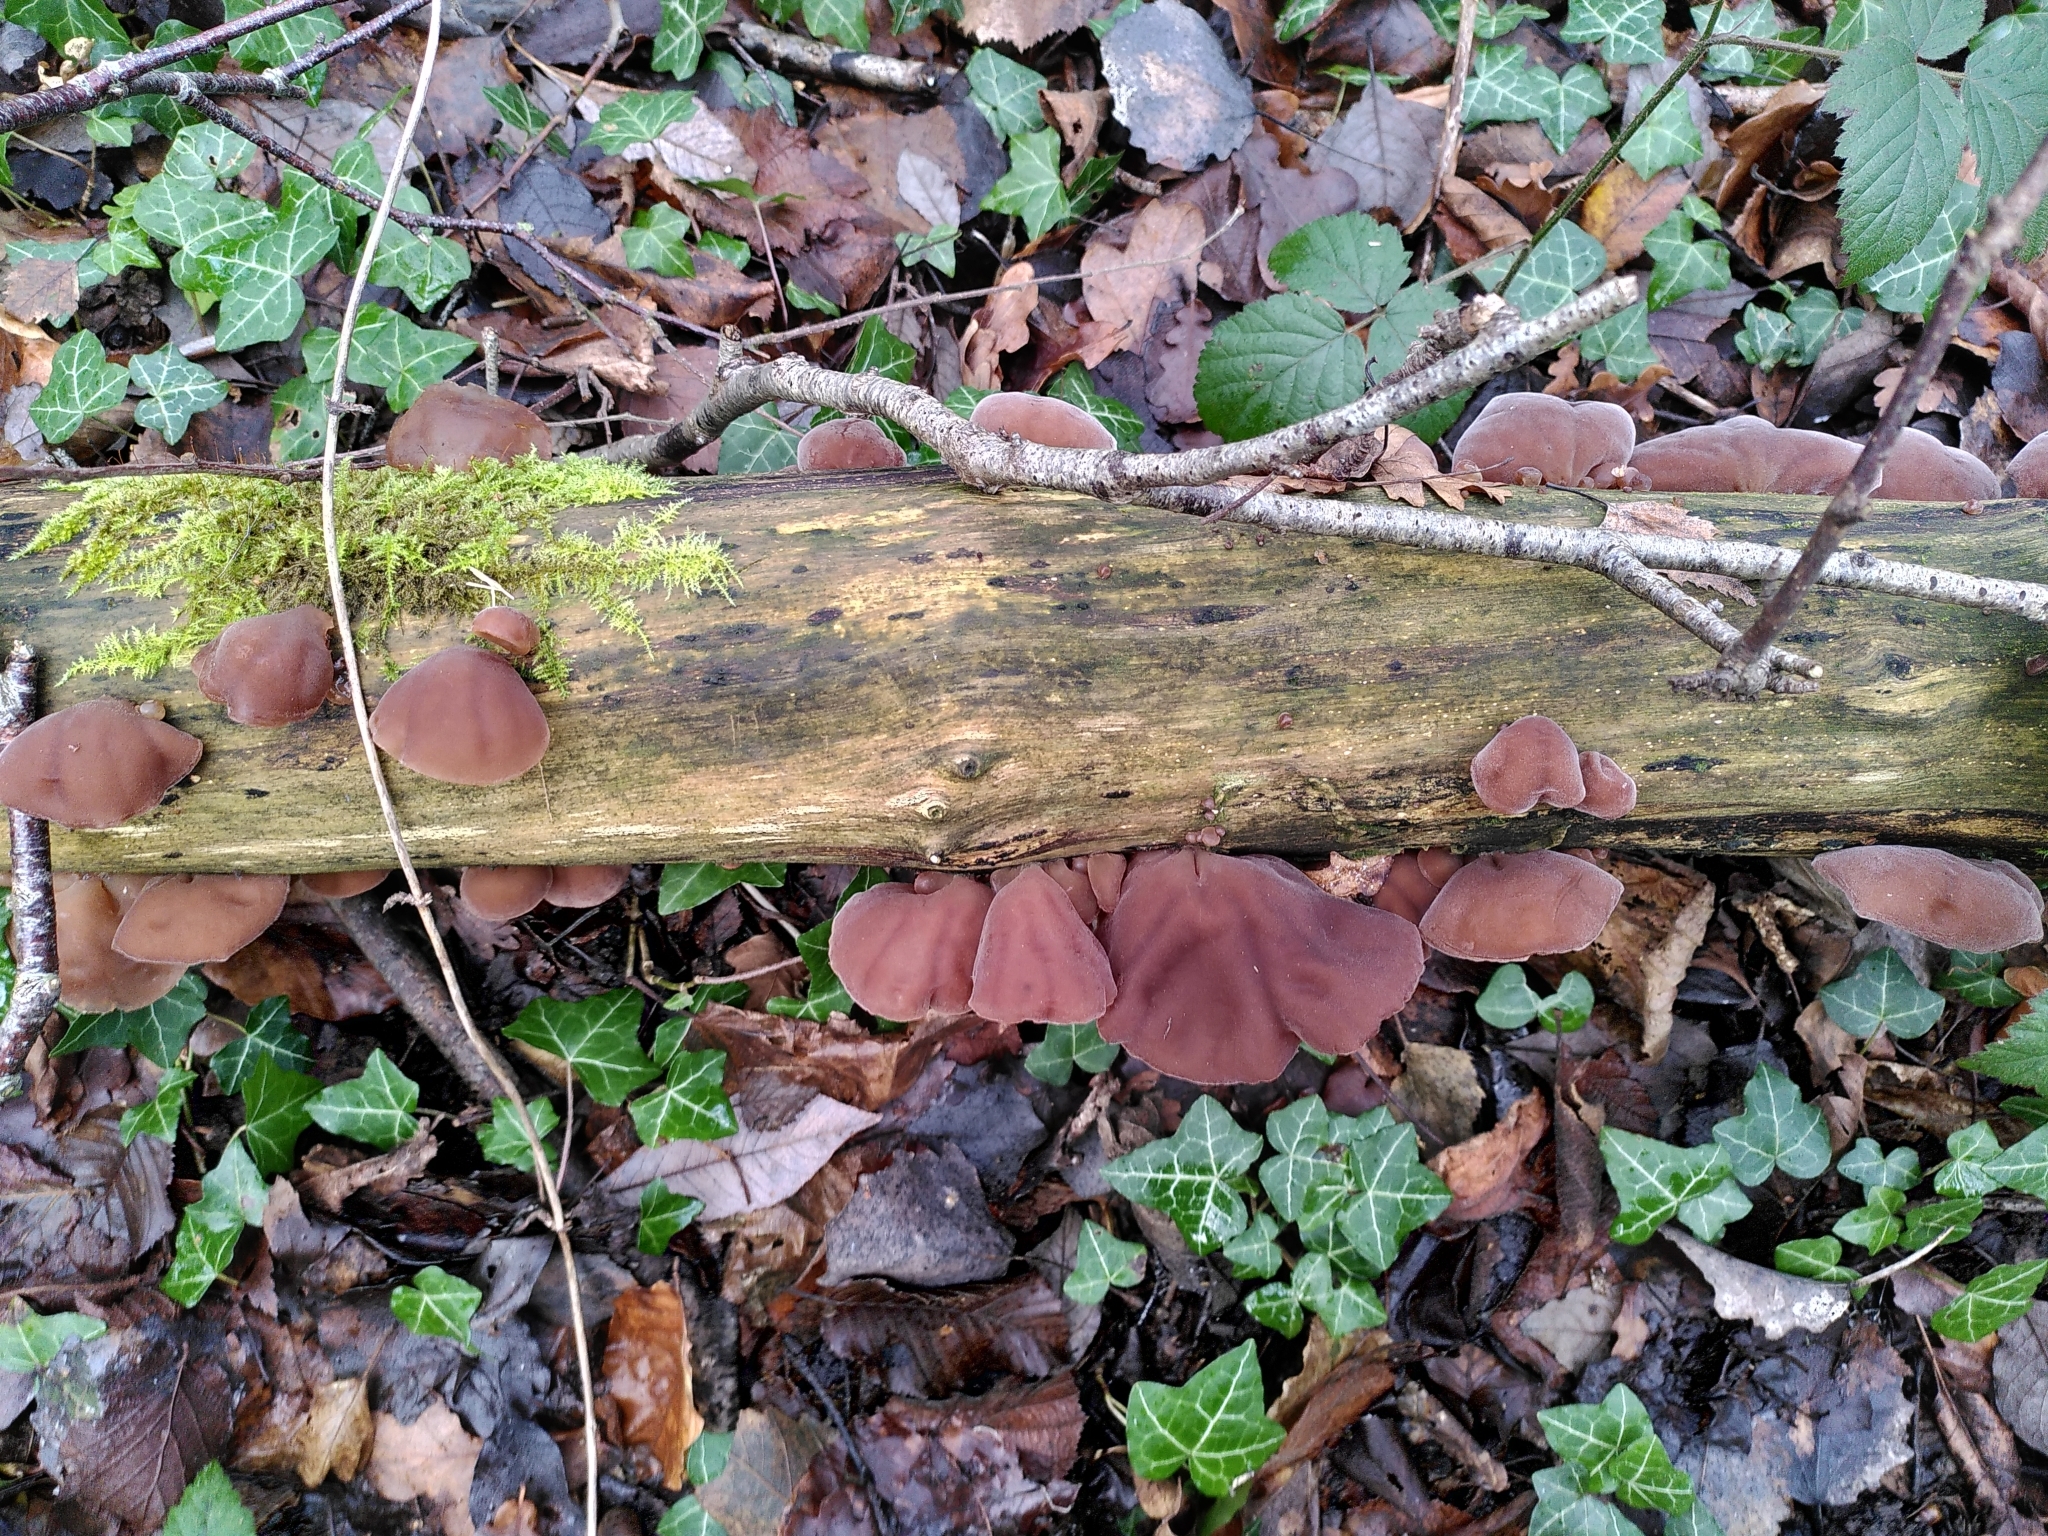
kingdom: Fungi
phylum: Basidiomycota
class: Agaricomycetes
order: Auriculariales
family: Auriculariaceae
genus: Auricularia
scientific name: Auricularia auricula-judae
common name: Jelly ear
